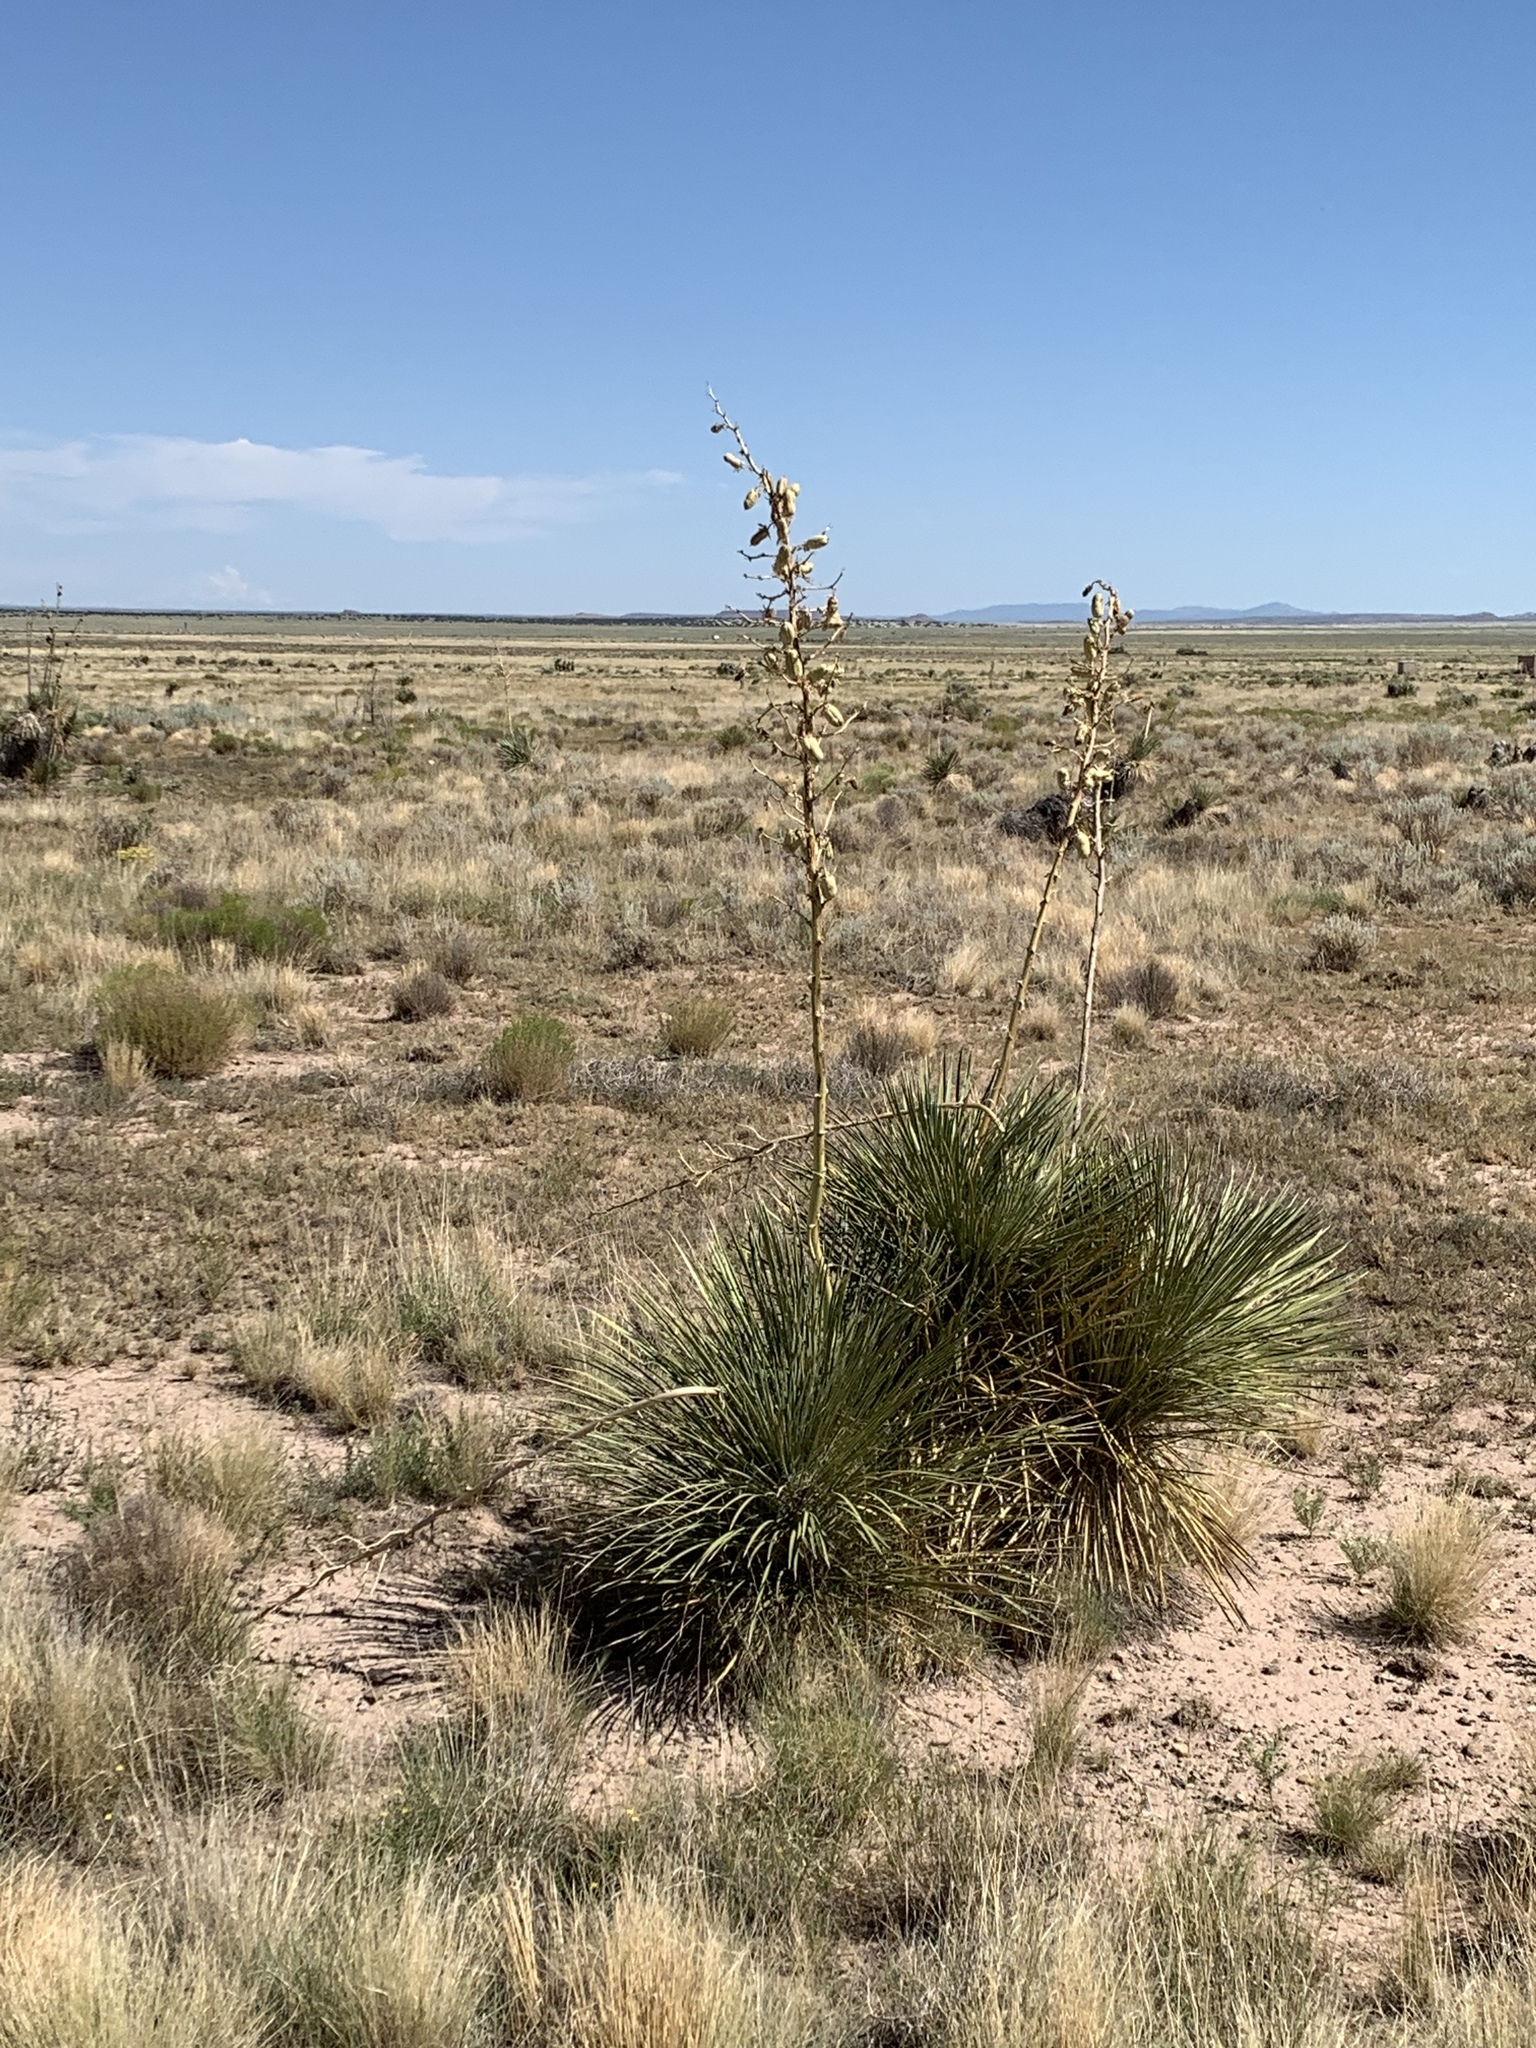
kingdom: Plantae
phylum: Tracheophyta
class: Liliopsida
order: Asparagales
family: Asparagaceae
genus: Yucca
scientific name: Yucca elata
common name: Palmella
